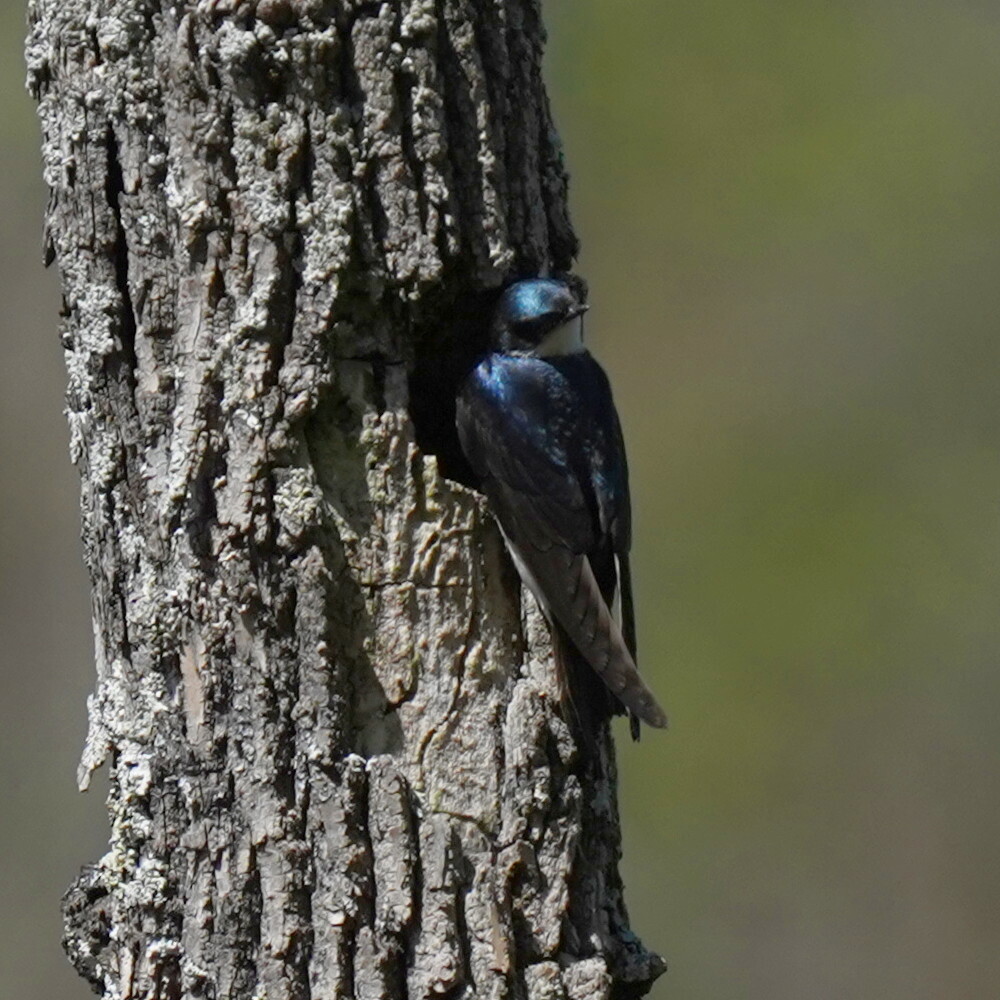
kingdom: Animalia
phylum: Chordata
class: Aves
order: Passeriformes
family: Hirundinidae
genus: Tachycineta
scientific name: Tachycineta bicolor
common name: Tree swallow
